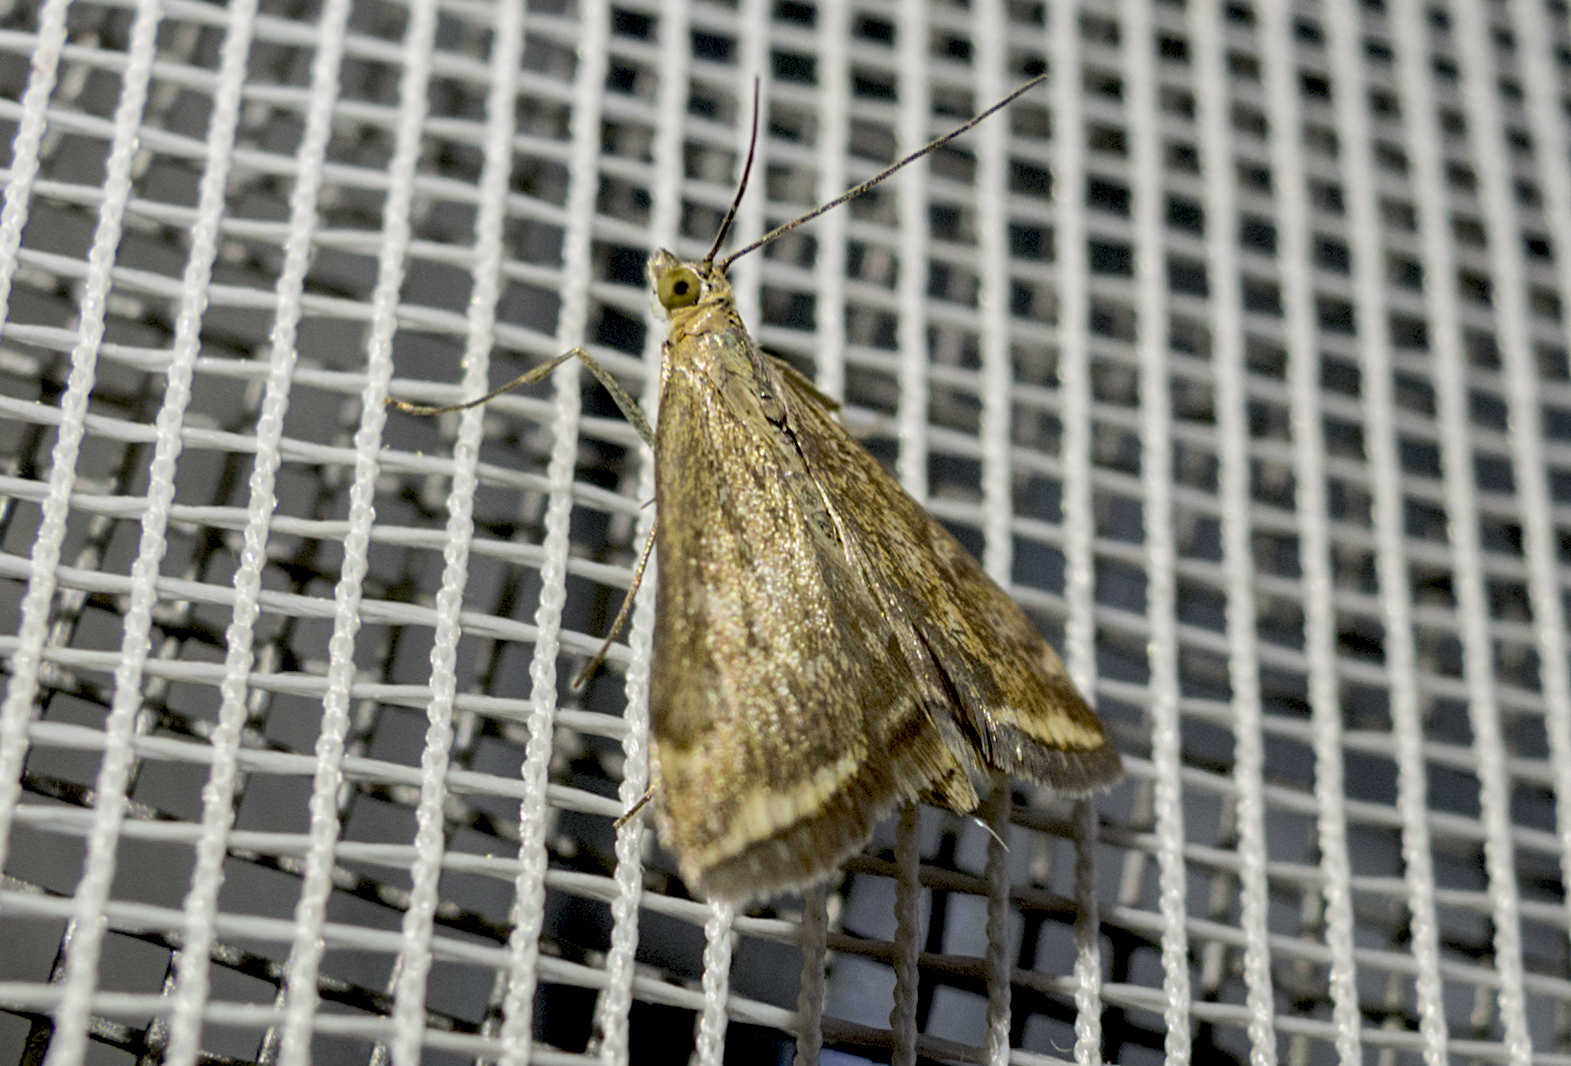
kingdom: Animalia
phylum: Arthropoda
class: Insecta
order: Lepidoptera
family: Crambidae
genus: Loxostege
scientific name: Loxostege sticticalis
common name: Crambid moth
